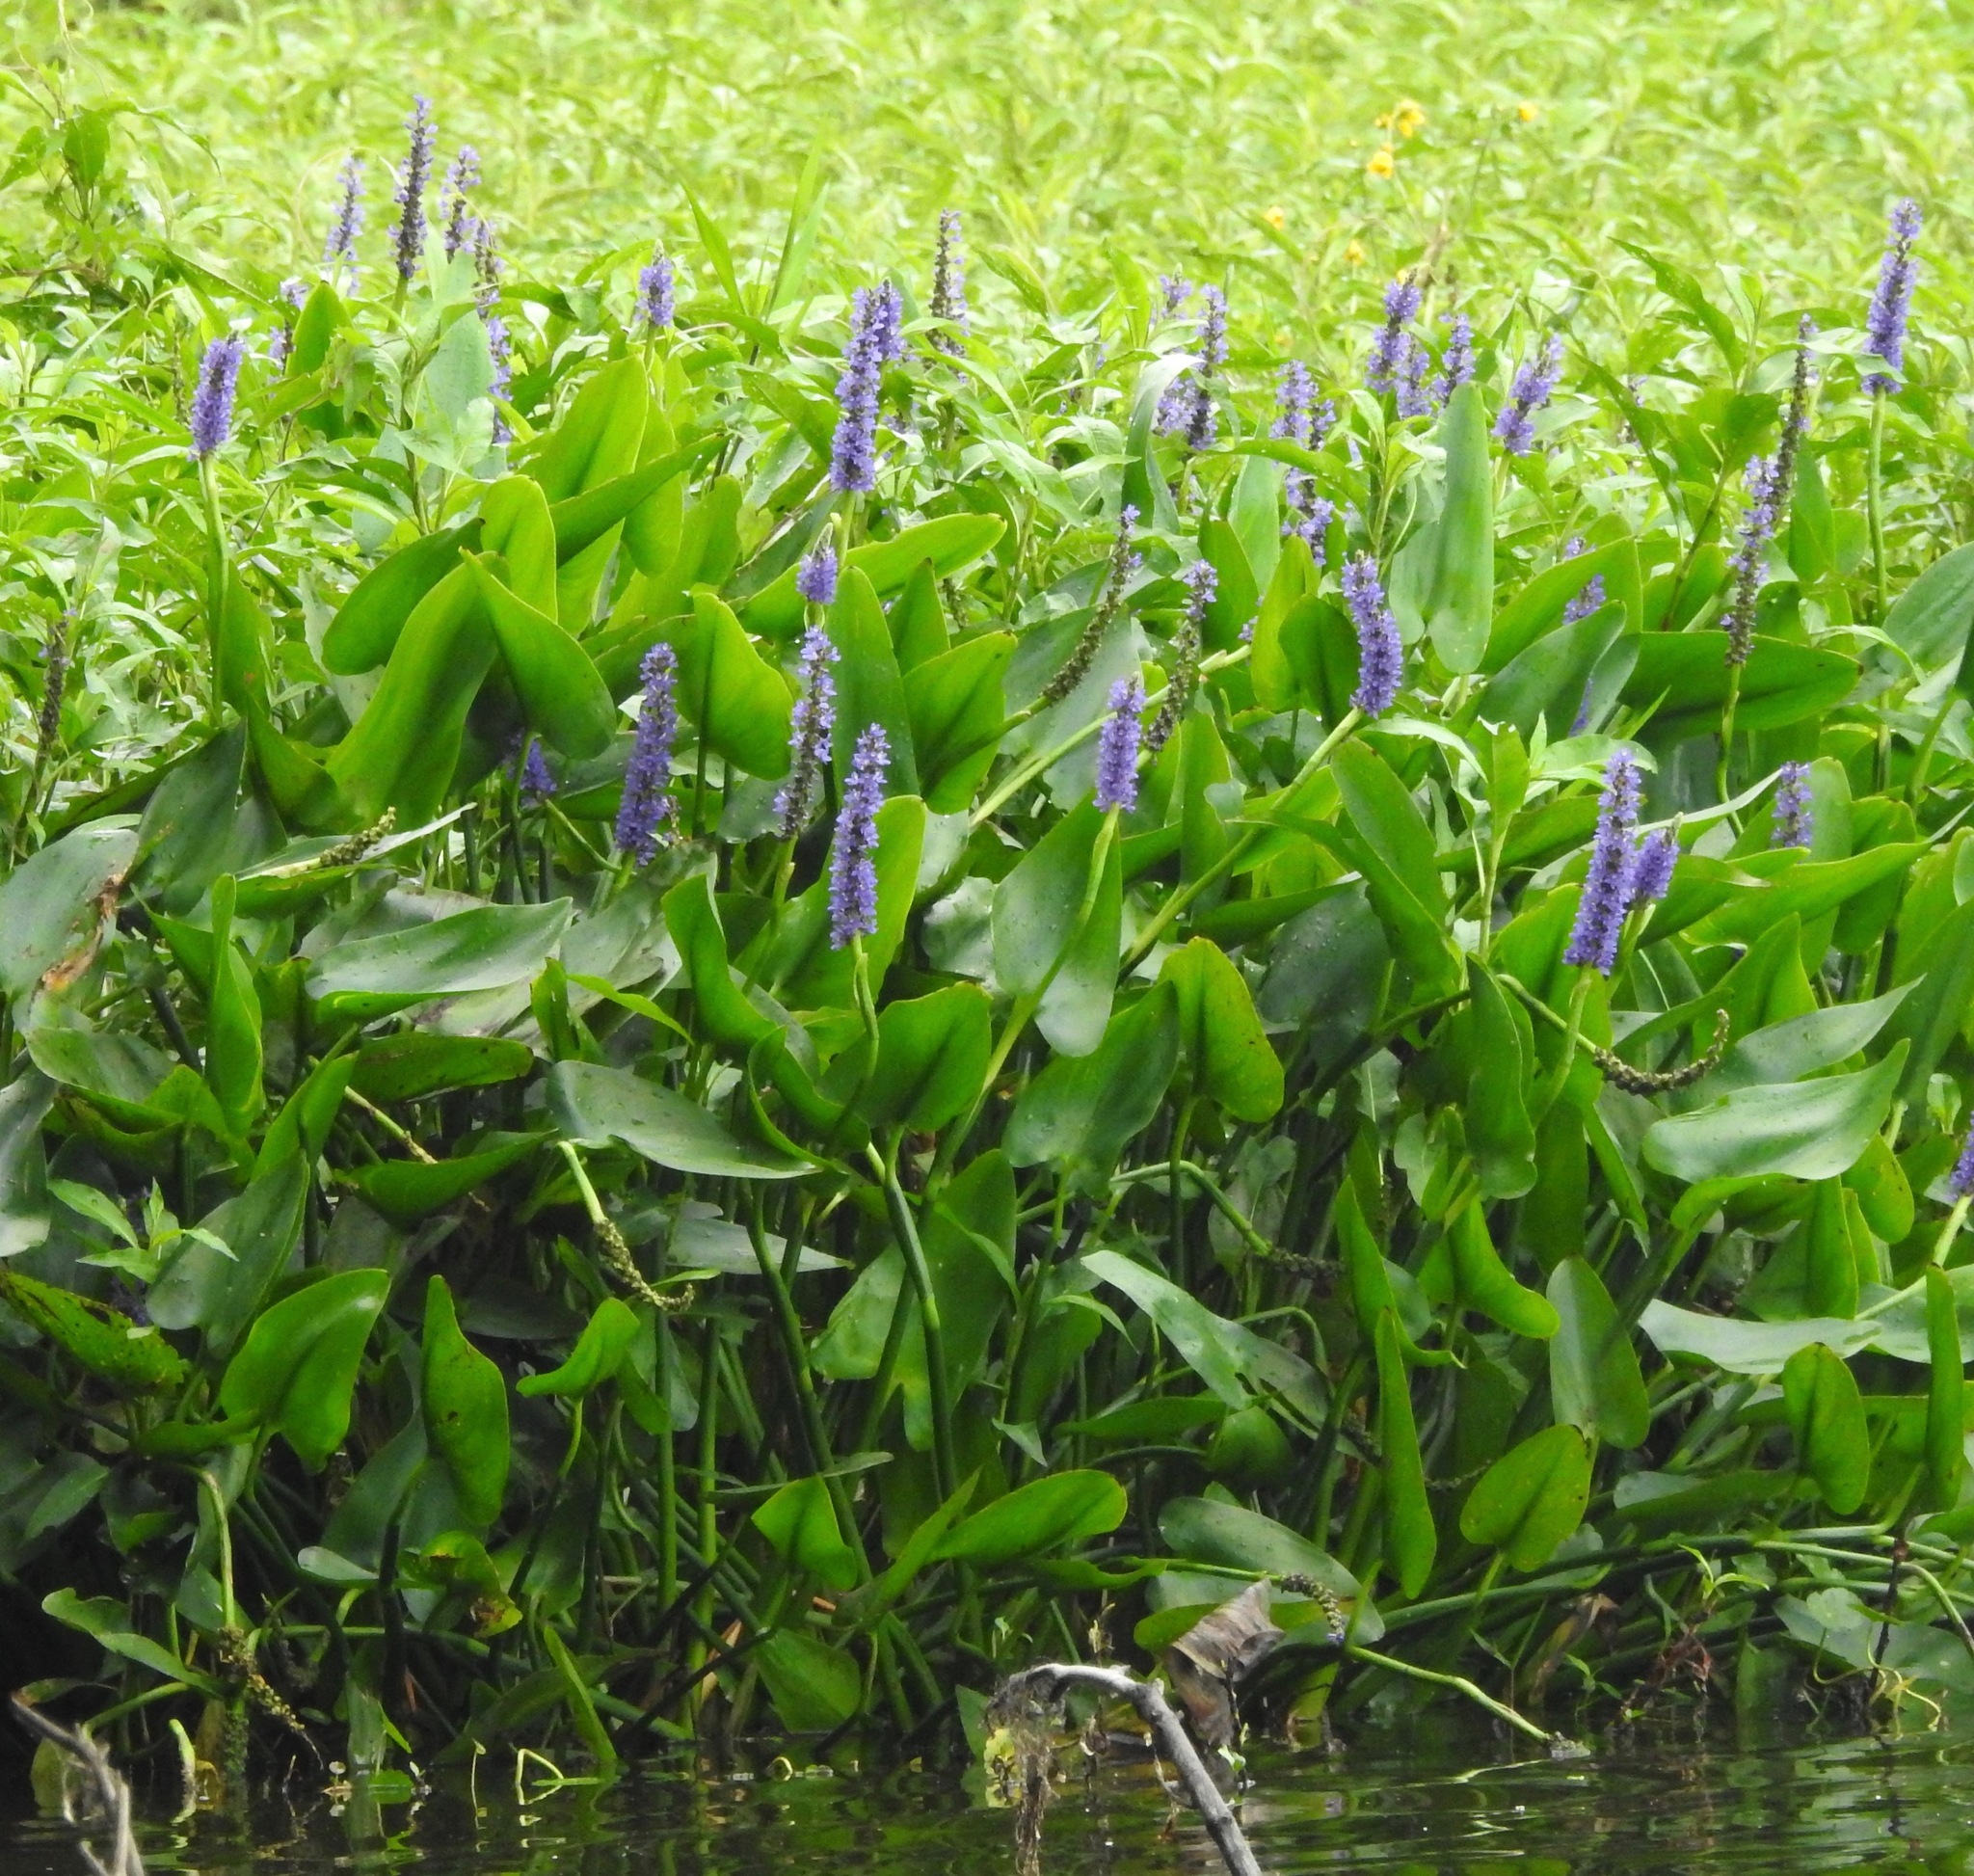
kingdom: Plantae
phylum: Tracheophyta
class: Liliopsida
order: Commelinales
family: Pontederiaceae
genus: Pontederia
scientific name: Pontederia cordata
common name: Pickerelweed
